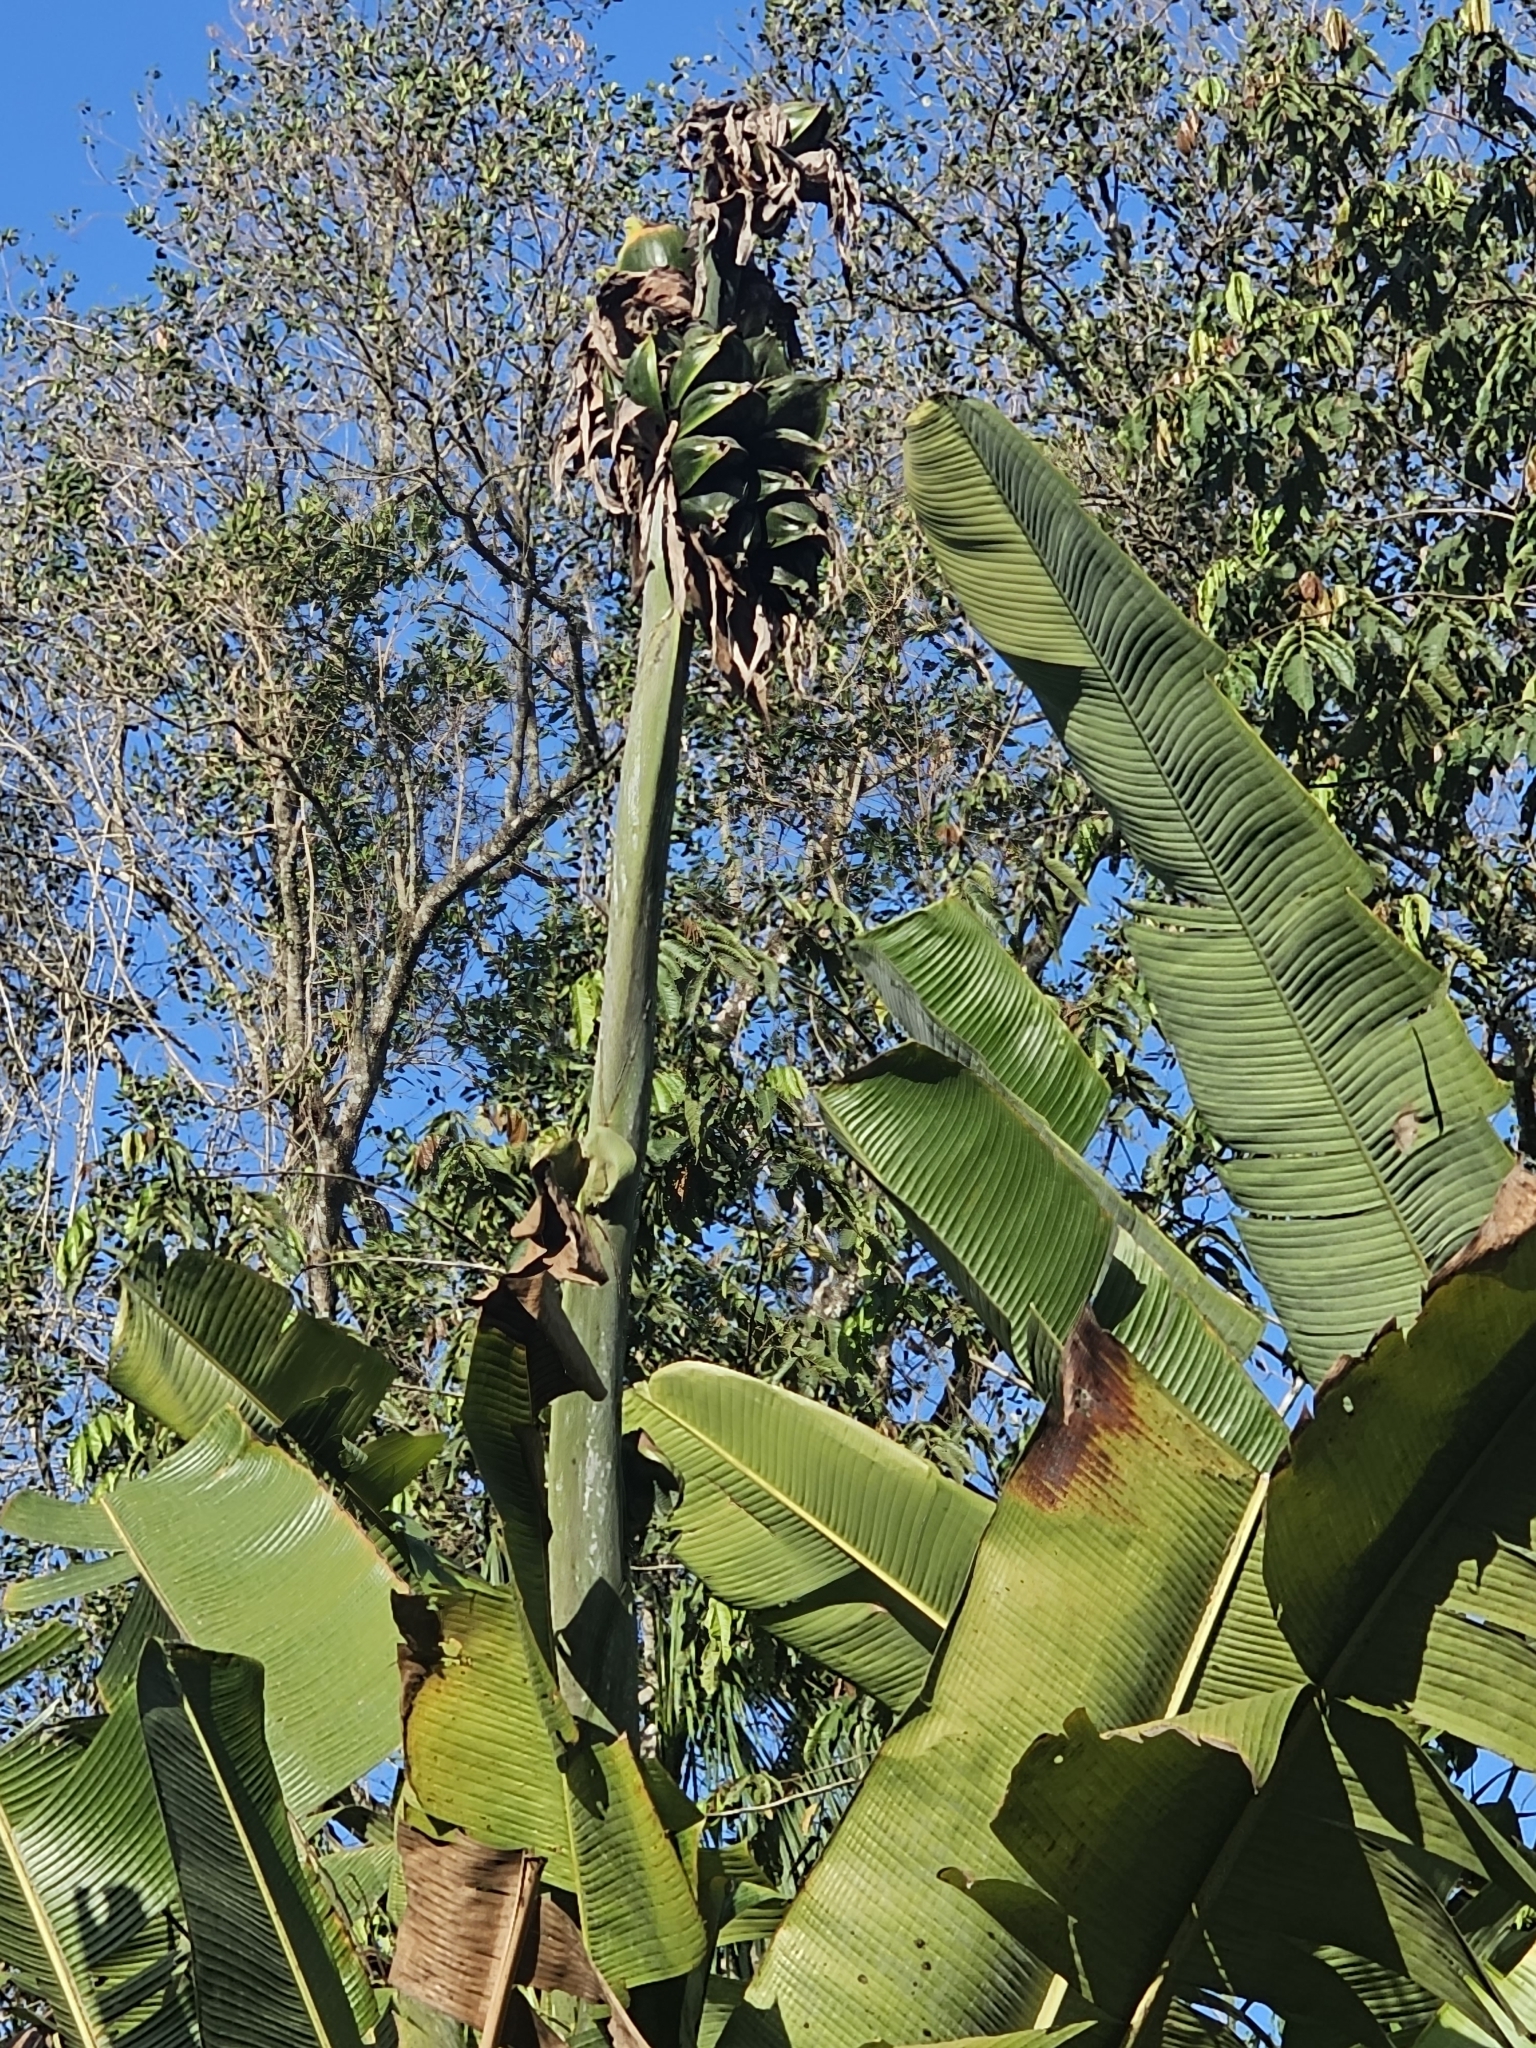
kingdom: Plantae
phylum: Tracheophyta
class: Liliopsida
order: Zingiberales
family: Strelitziaceae
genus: Phenakospermum
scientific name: Phenakospermum guyannense
